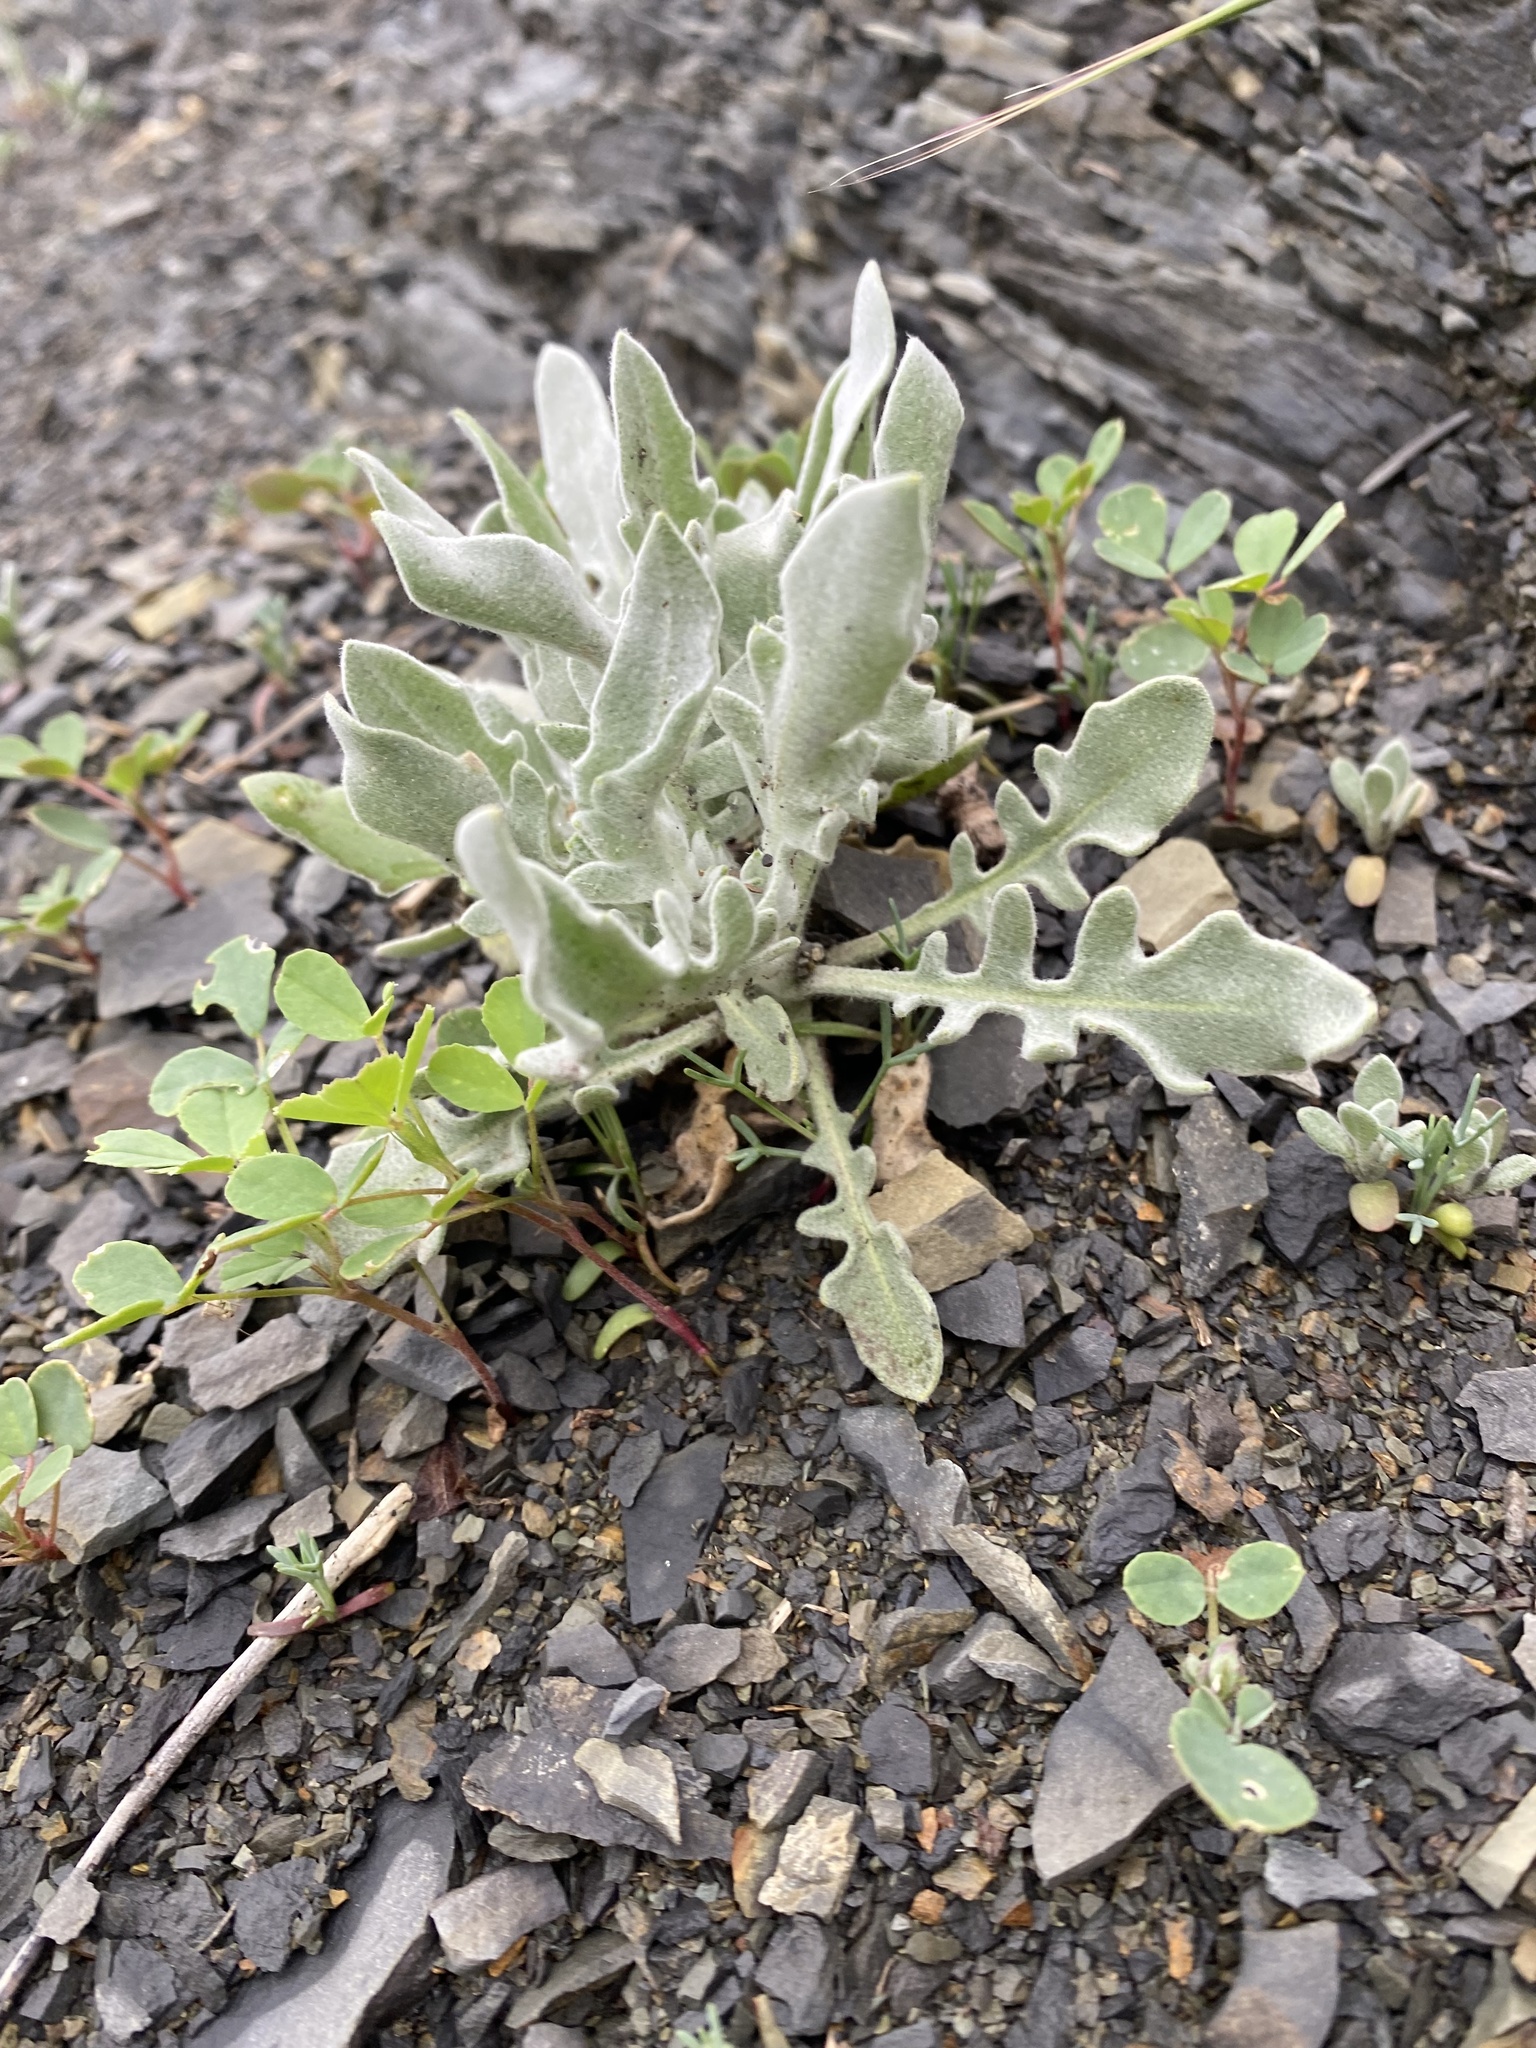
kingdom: Plantae
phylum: Tracheophyta
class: Magnoliopsida
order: Brassicales
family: Brassicaceae
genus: Matthiola
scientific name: Matthiola odoratissima
